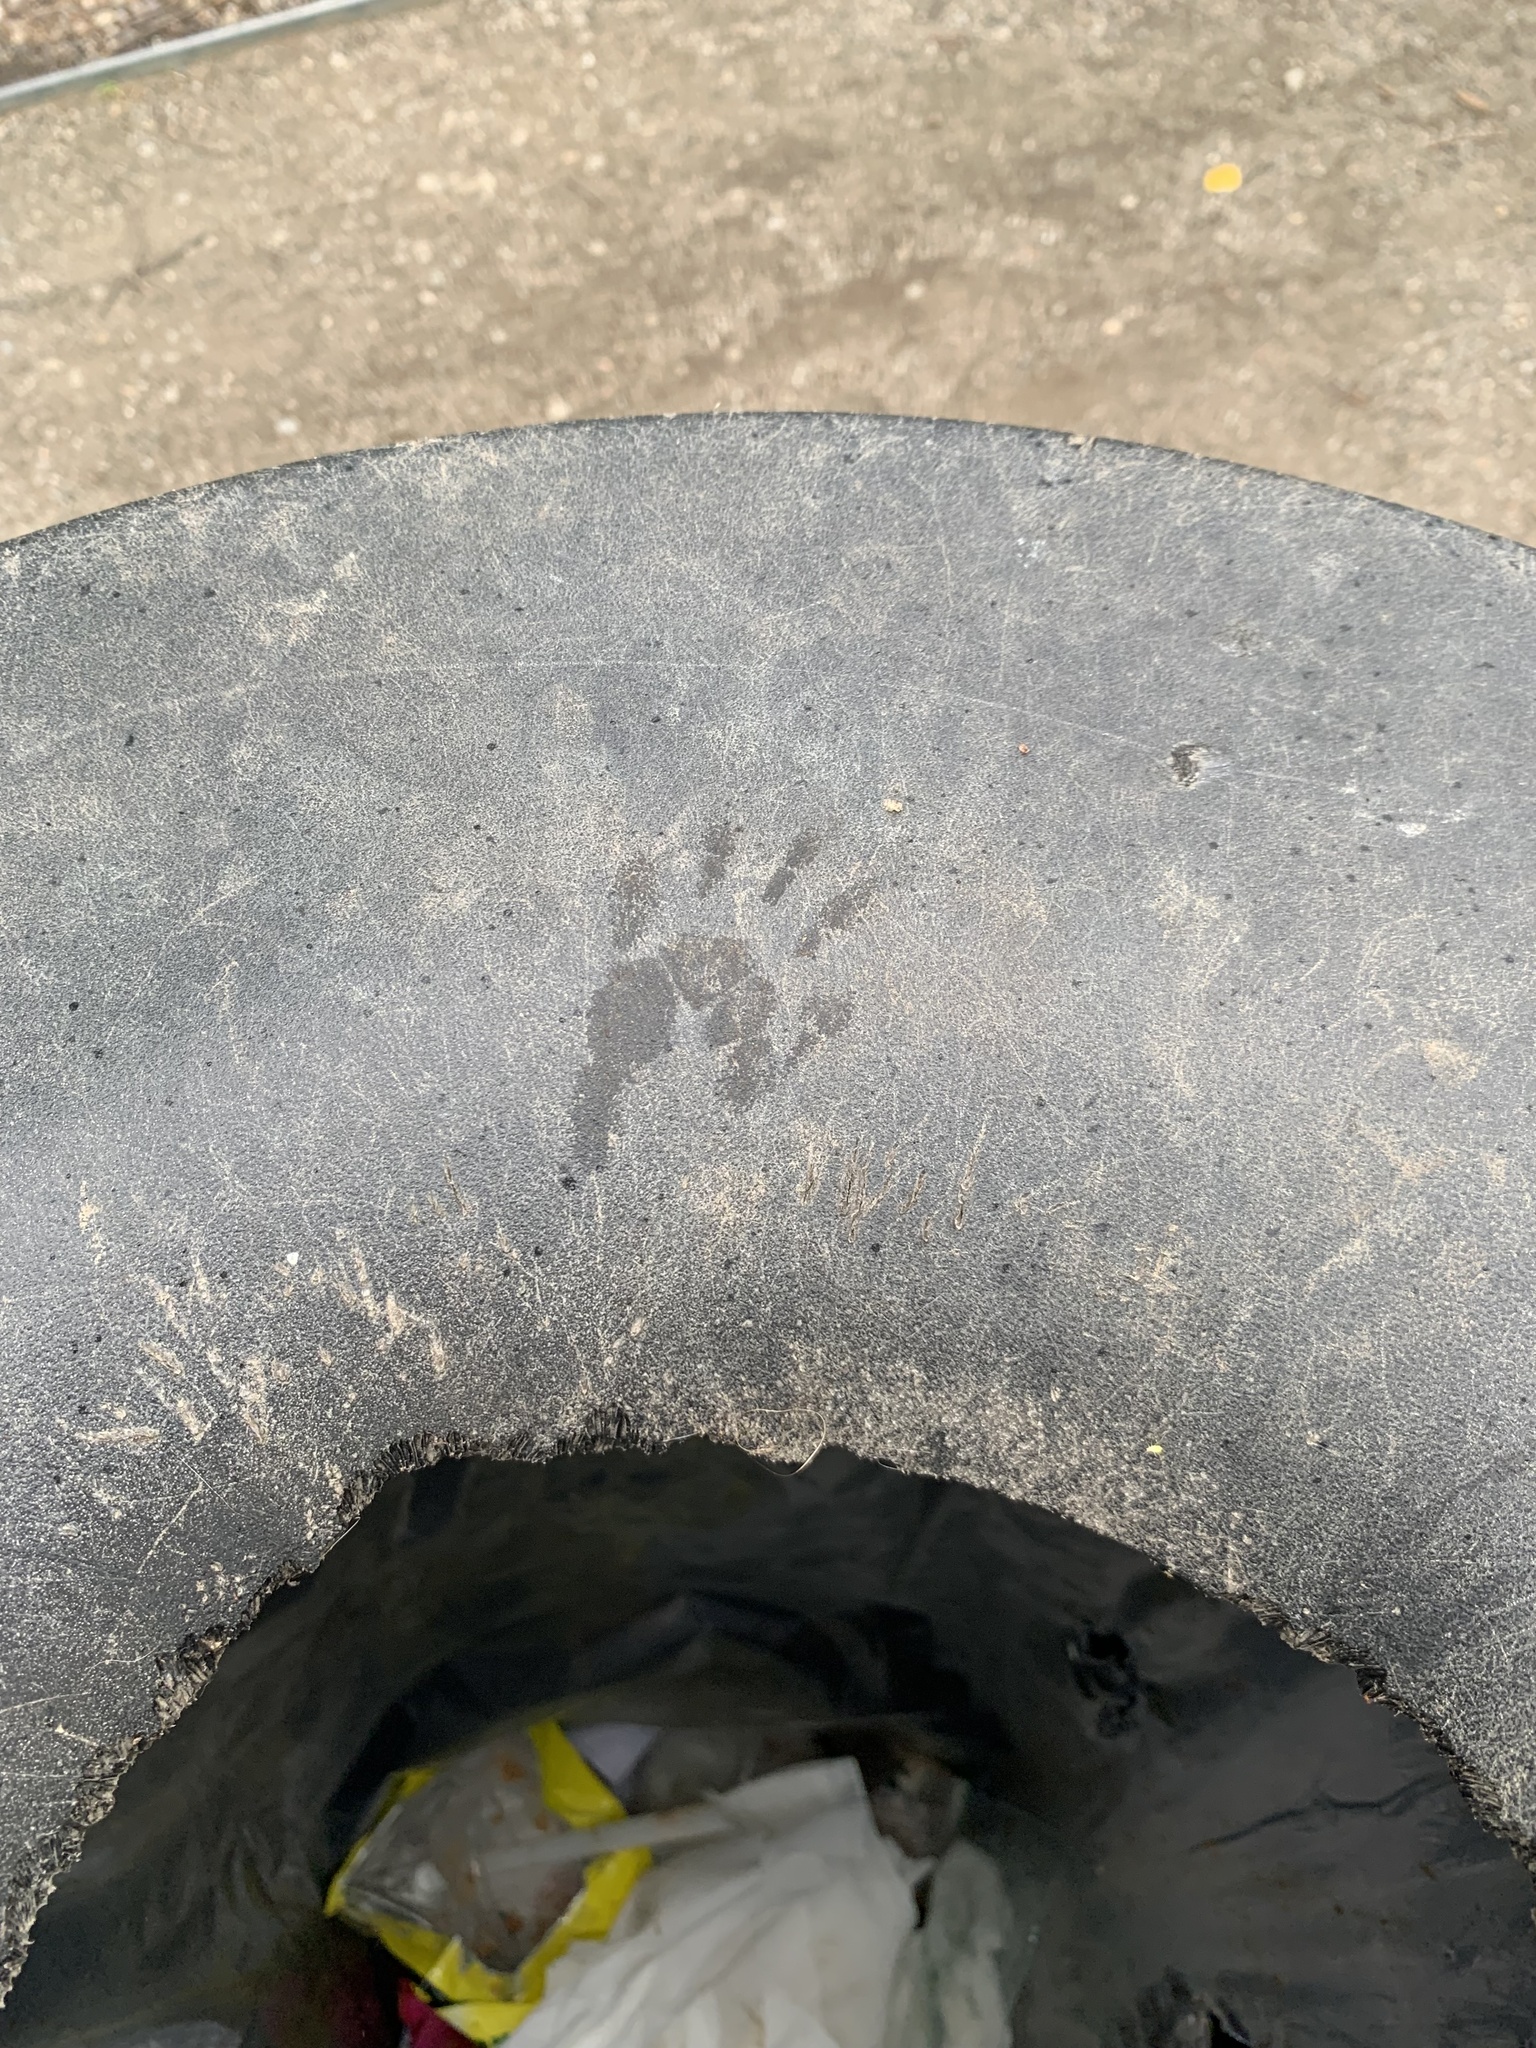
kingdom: Animalia
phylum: Chordata
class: Mammalia
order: Carnivora
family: Procyonidae
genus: Procyon
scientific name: Procyon lotor
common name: Raccoon
